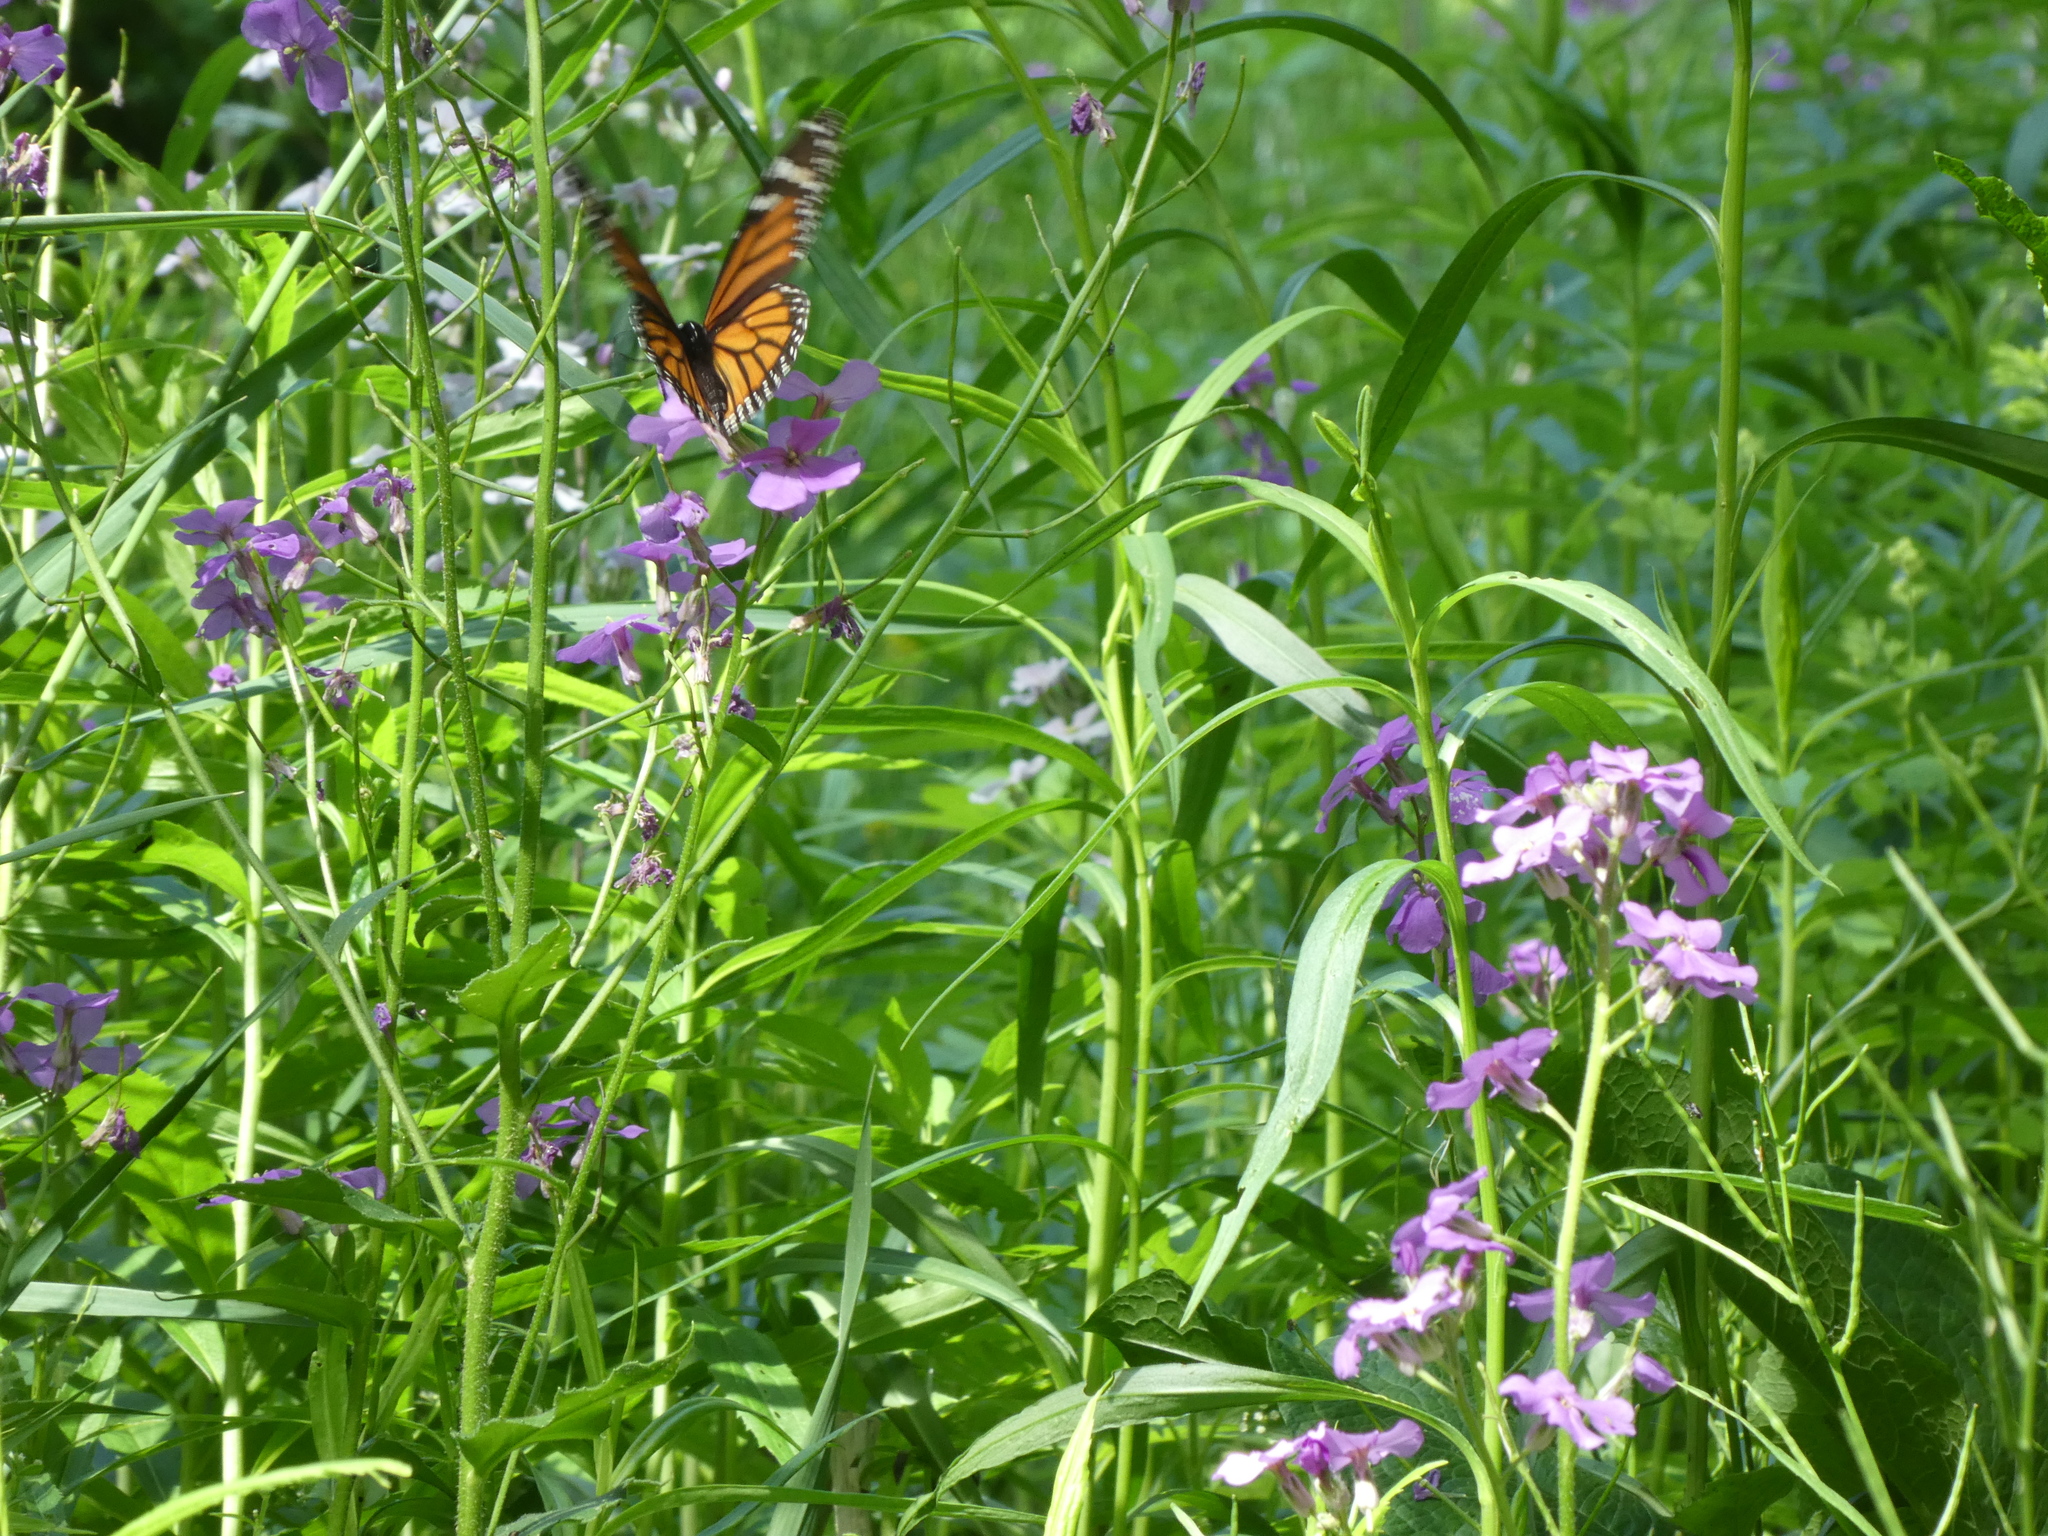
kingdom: Animalia
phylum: Arthropoda
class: Insecta
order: Lepidoptera
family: Nymphalidae
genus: Danaus
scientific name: Danaus plexippus
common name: Monarch
